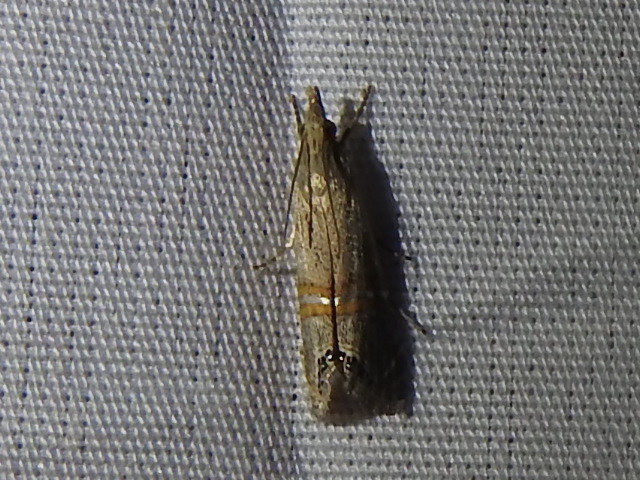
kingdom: Animalia
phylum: Arthropoda
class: Insecta
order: Lepidoptera
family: Crambidae
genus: Euchromius
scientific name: Euchromius ocellea
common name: Necklace veneer moth
